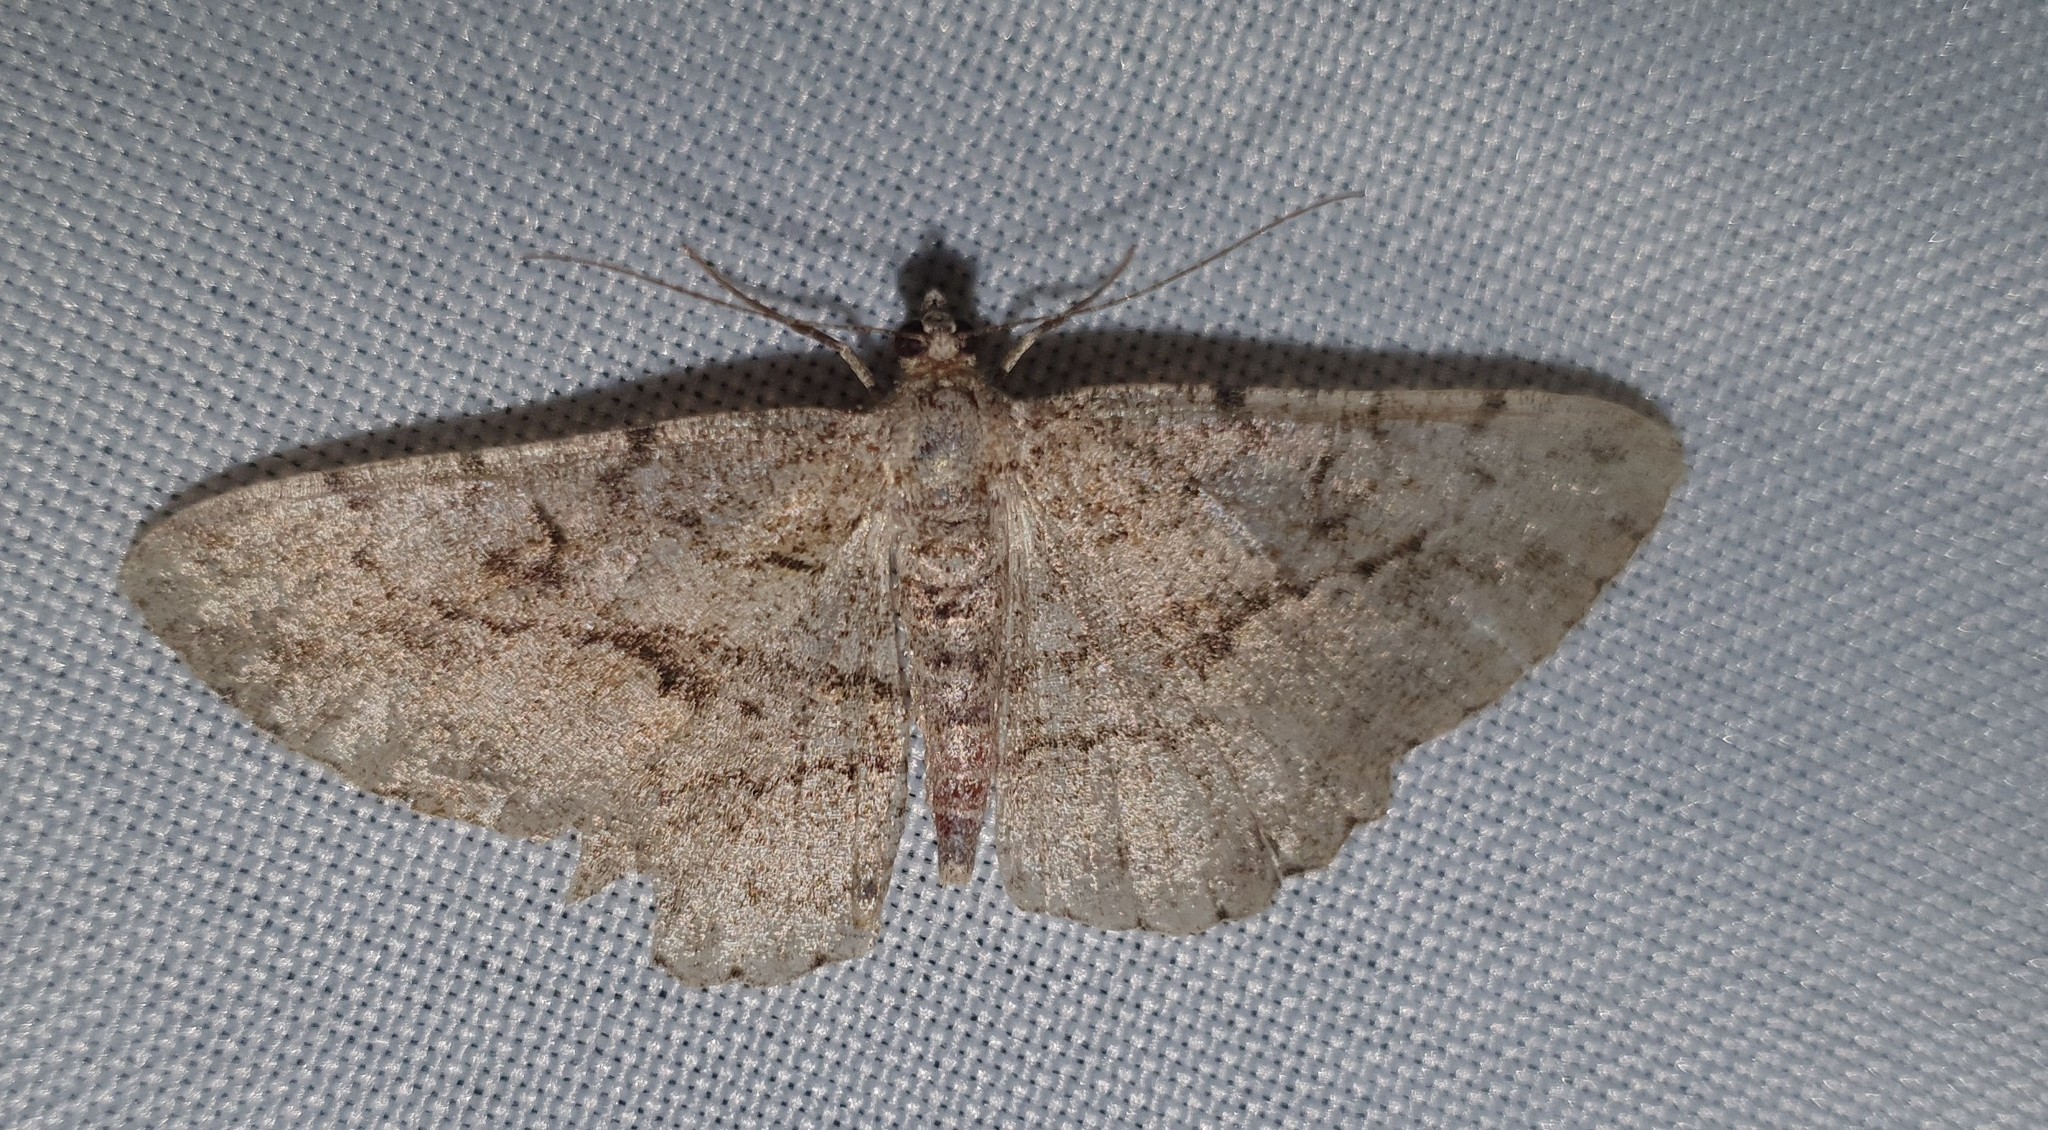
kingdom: Animalia
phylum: Arthropoda
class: Insecta
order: Lepidoptera
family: Geometridae
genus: Peribatodes
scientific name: Peribatodes rhomboidaria
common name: Willow beauty
